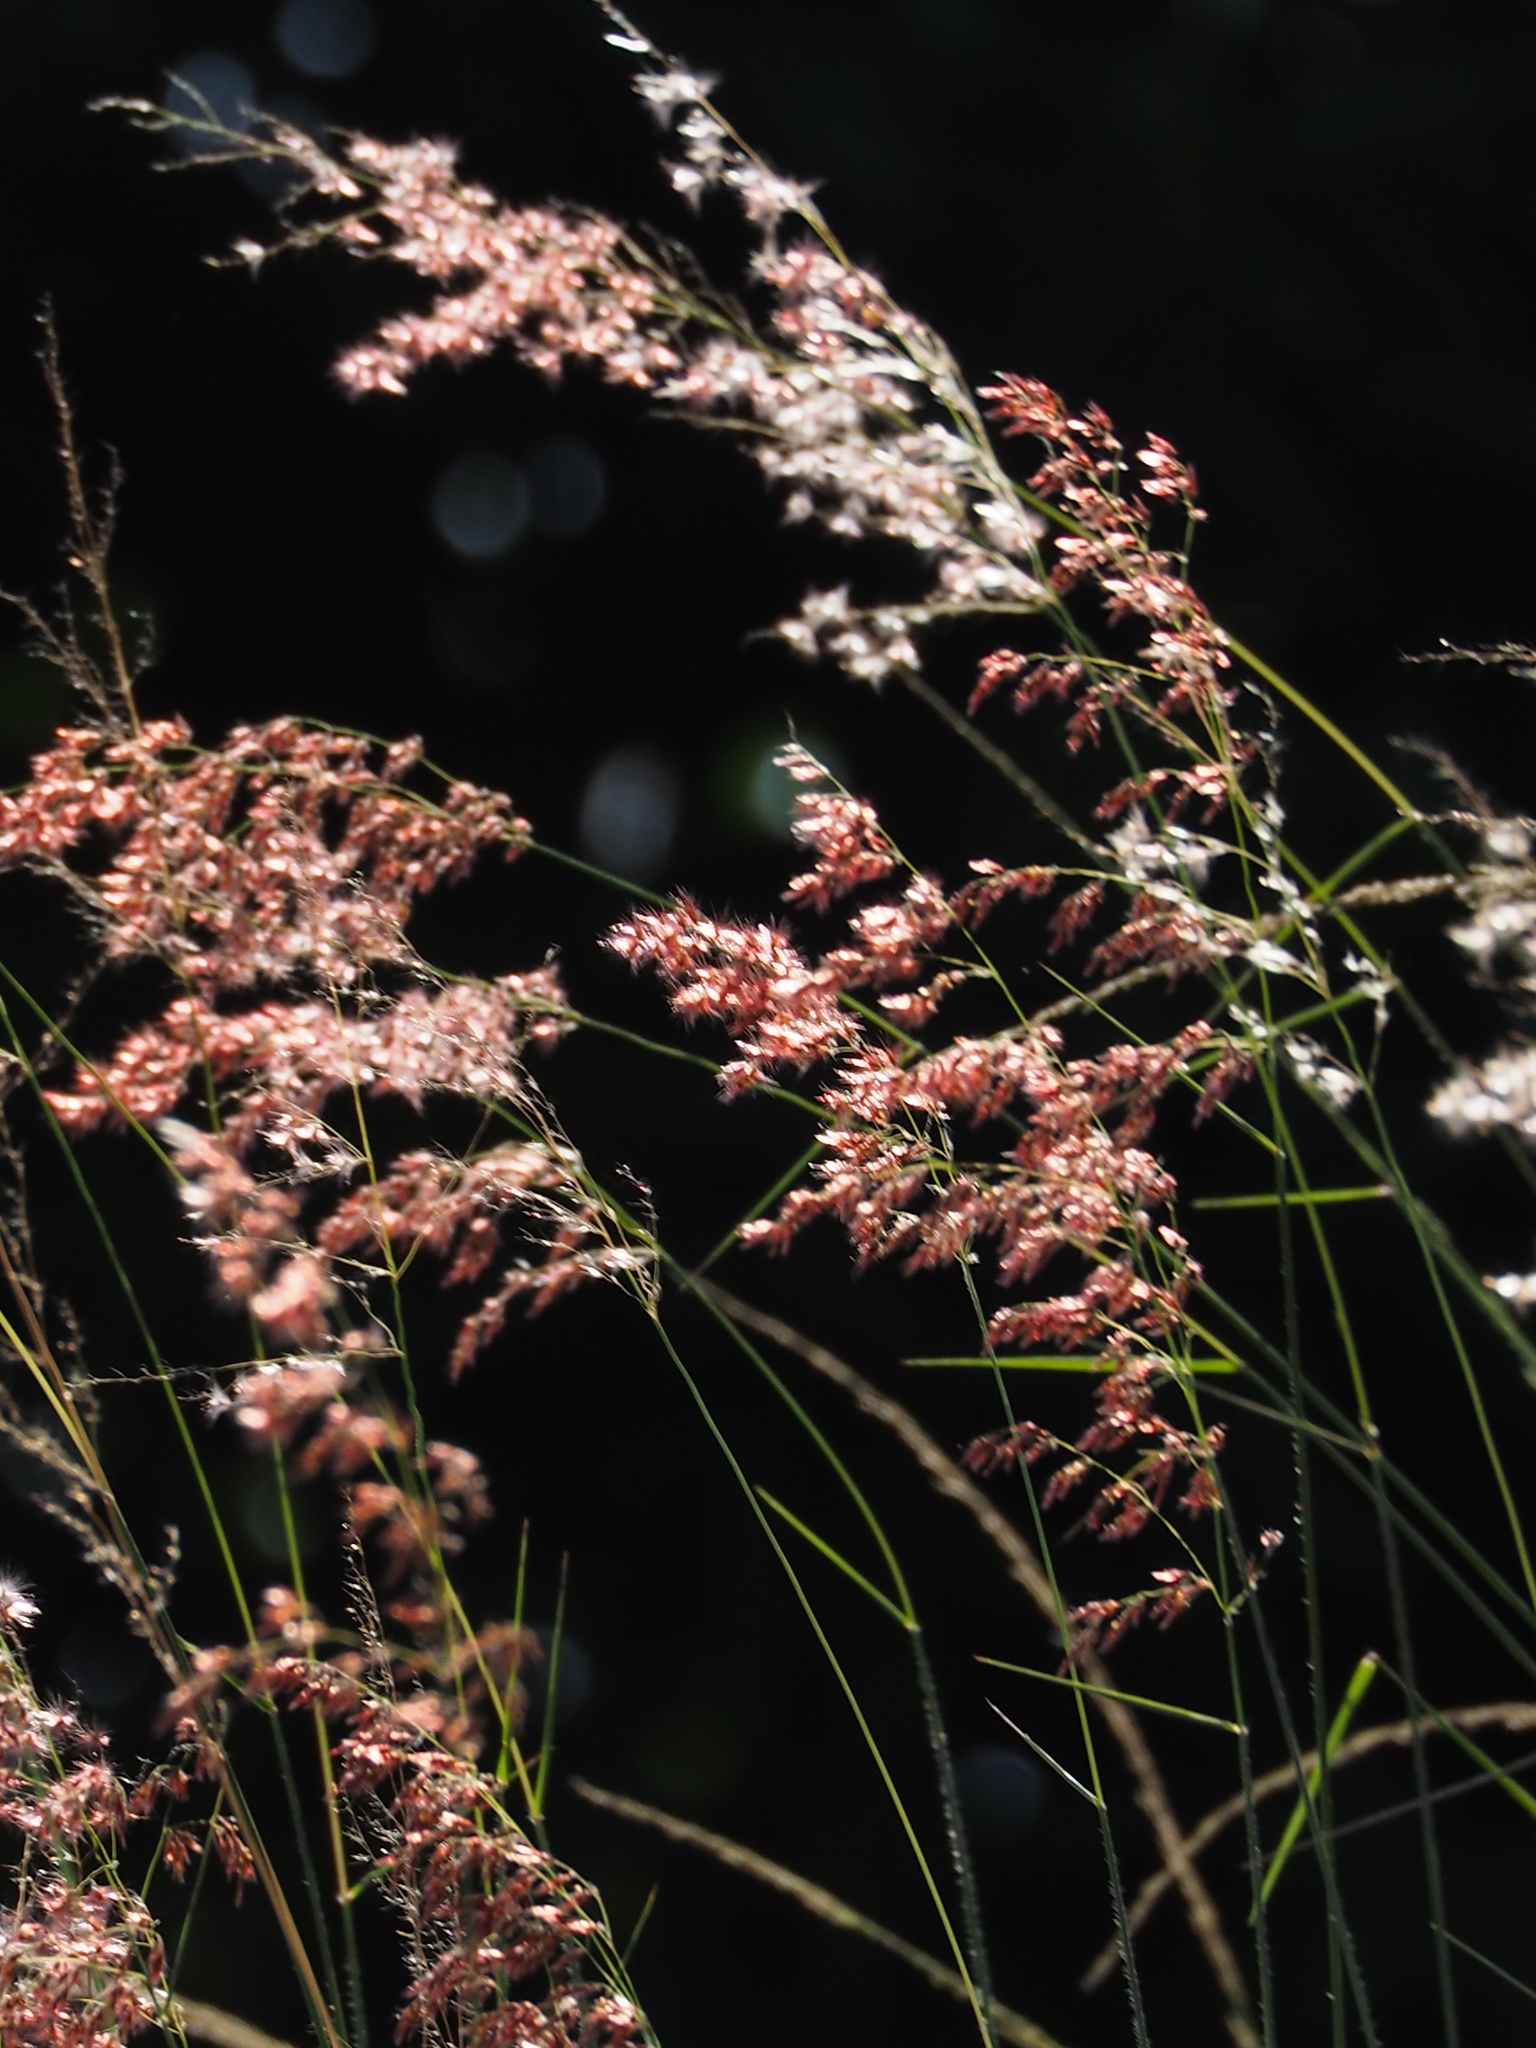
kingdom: Plantae
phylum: Tracheophyta
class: Liliopsida
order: Poales
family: Poaceae
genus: Melinis
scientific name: Melinis repens
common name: Rose natal grass
